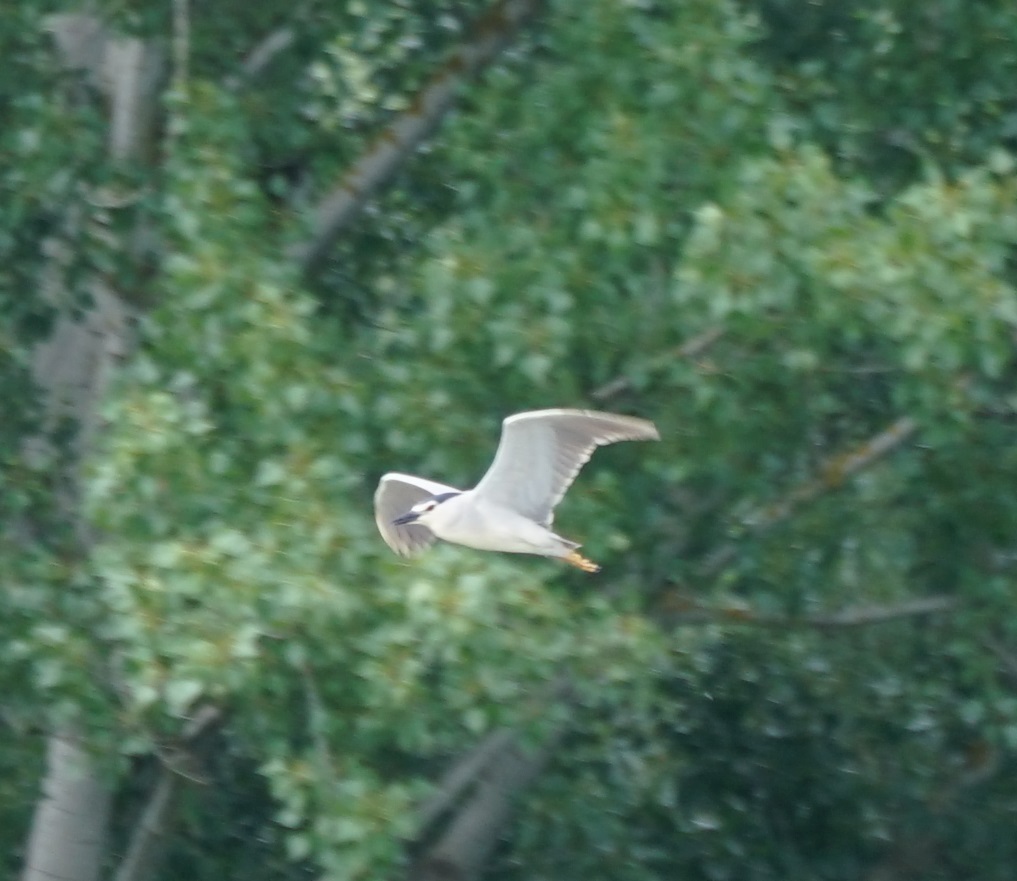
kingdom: Animalia
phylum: Chordata
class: Aves
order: Pelecaniformes
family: Ardeidae
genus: Nycticorax
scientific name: Nycticorax nycticorax
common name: Black-crowned night heron
